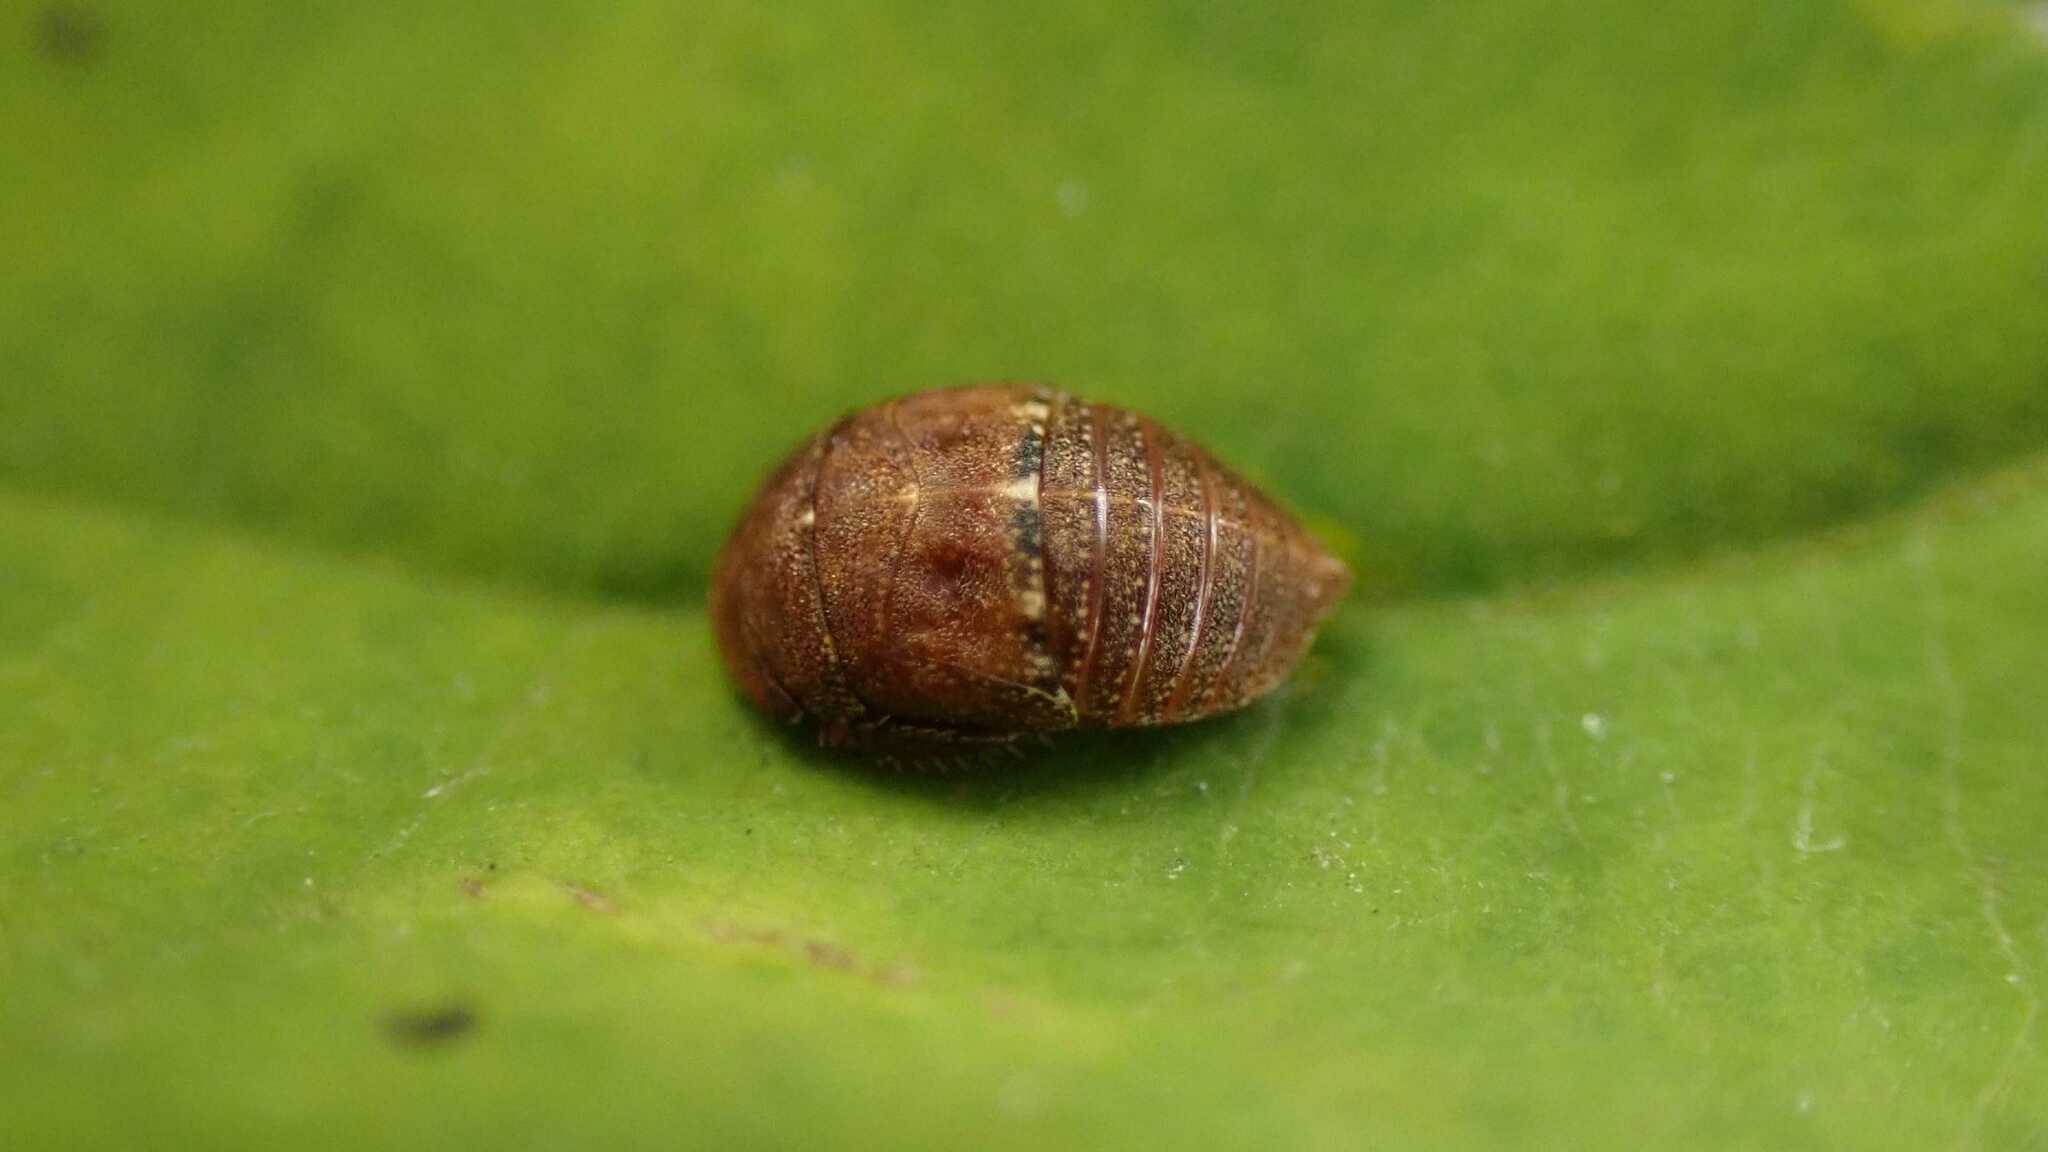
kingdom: Animalia
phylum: Arthropoda
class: Insecta
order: Hemiptera
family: Cicadellidae
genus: Penthimia
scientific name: Penthimia nigra
